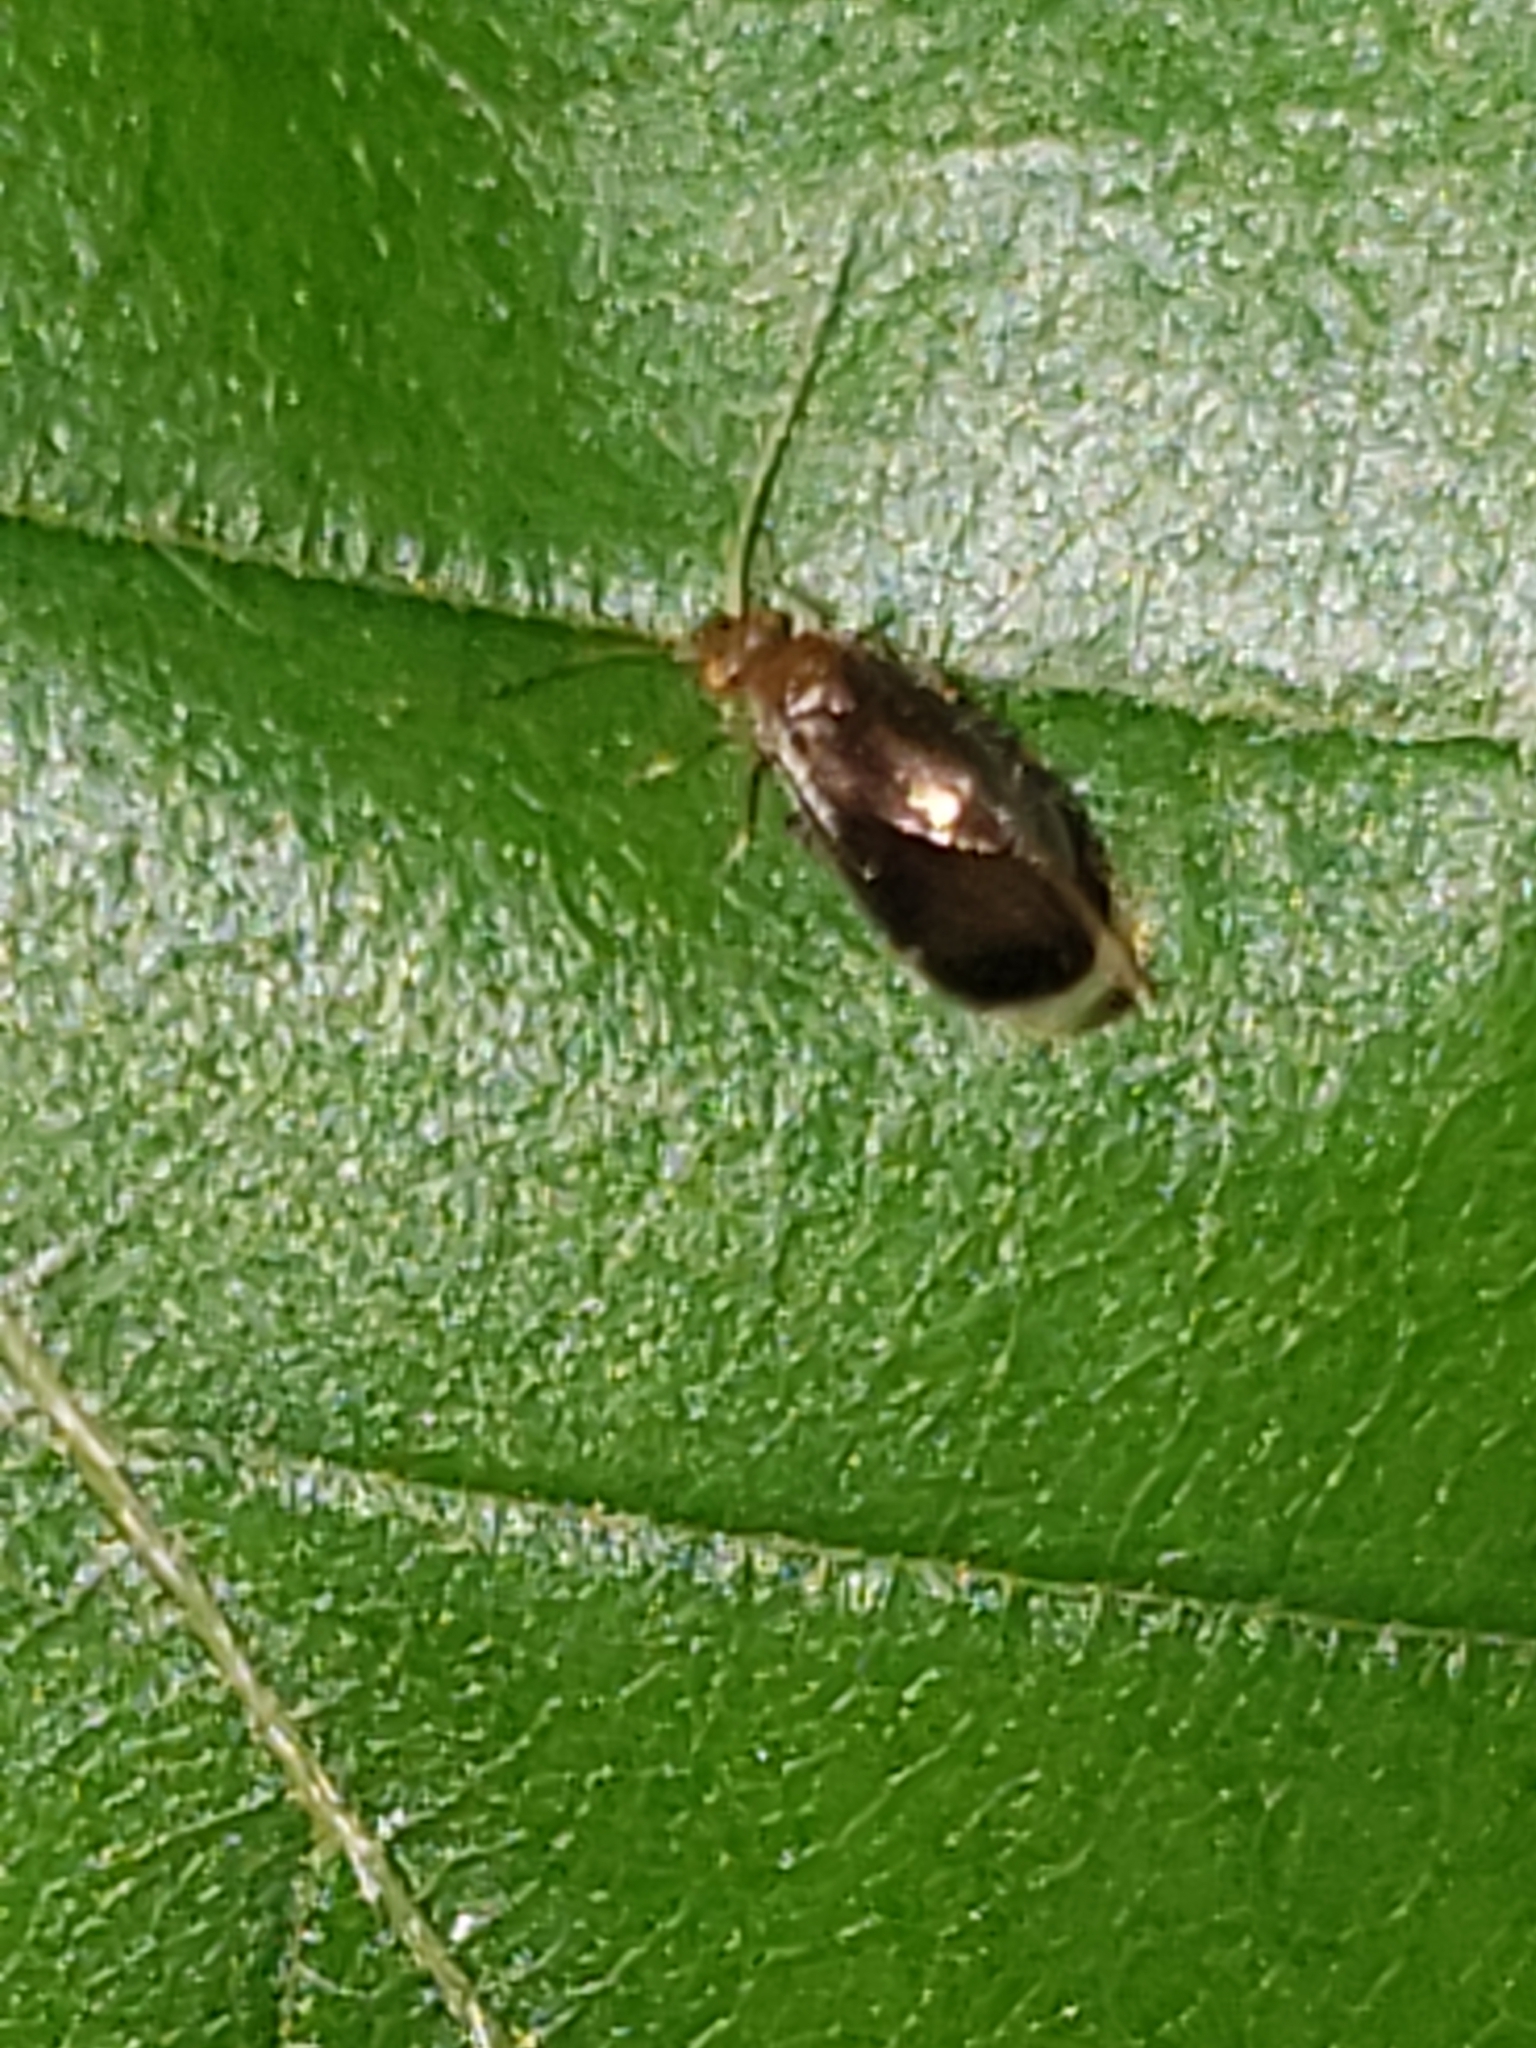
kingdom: Animalia
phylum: Arthropoda
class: Insecta
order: Psocodea
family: Amphipsocidae
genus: Polypsocus
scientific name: Polypsocus corruptus
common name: Corrupt barklouse
